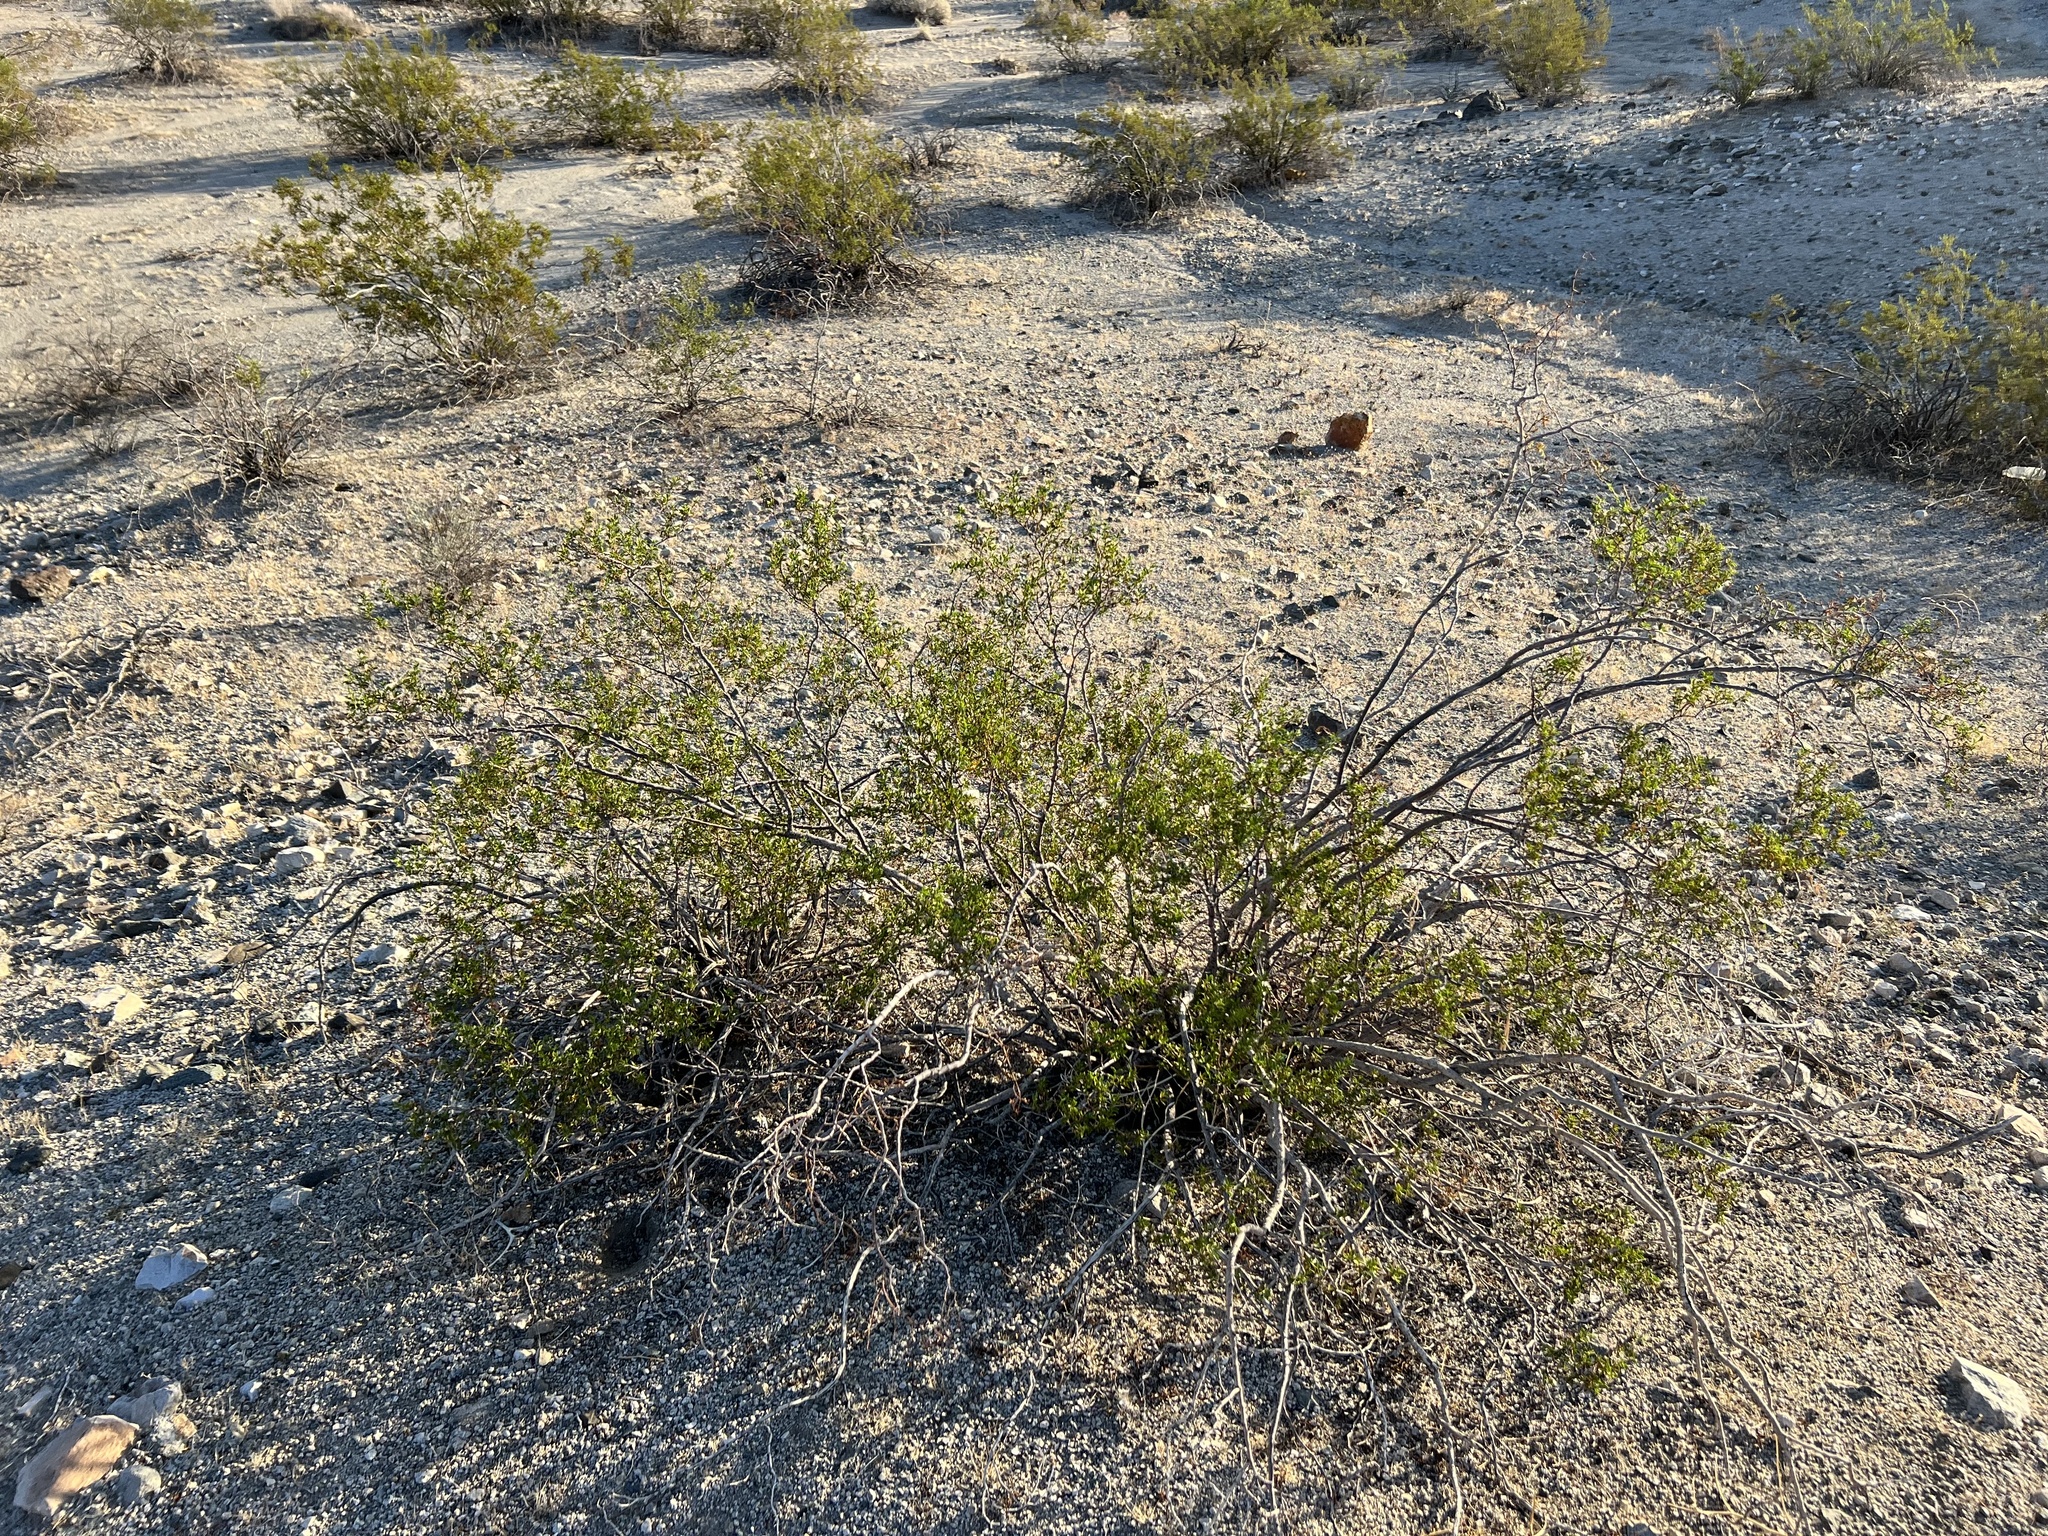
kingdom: Plantae
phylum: Tracheophyta
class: Magnoliopsida
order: Zygophyllales
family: Zygophyllaceae
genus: Larrea
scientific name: Larrea tridentata
